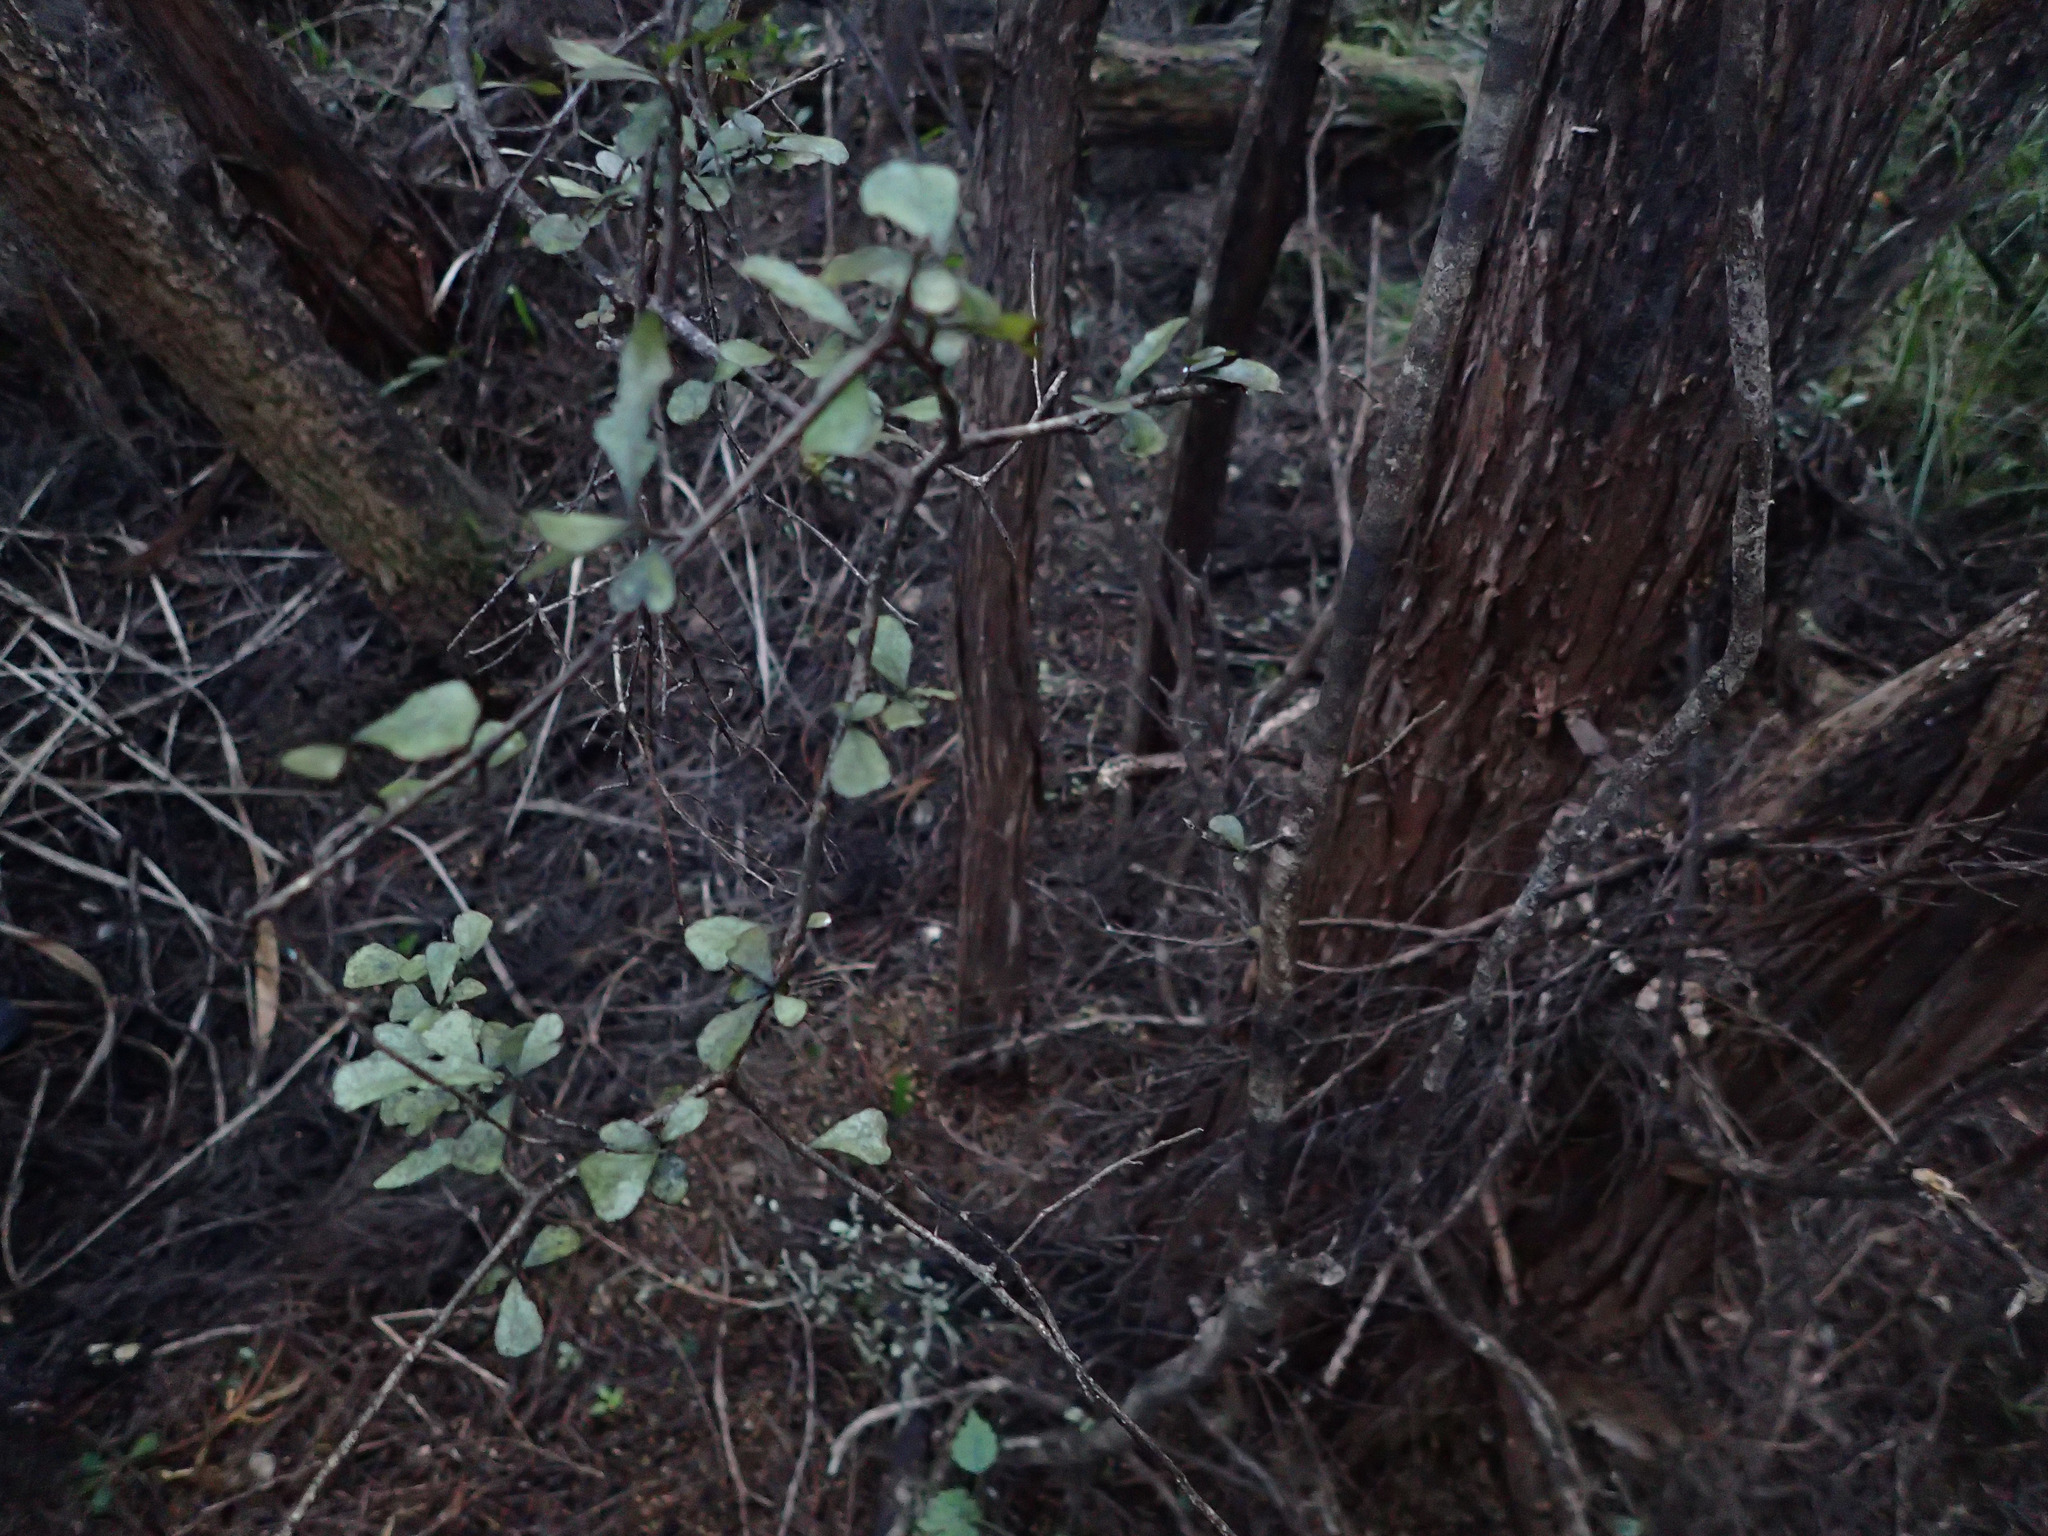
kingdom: Plantae
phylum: Tracheophyta
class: Magnoliopsida
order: Oxalidales
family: Elaeocarpaceae
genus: Elaeocarpus
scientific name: Elaeocarpus hookerianus
